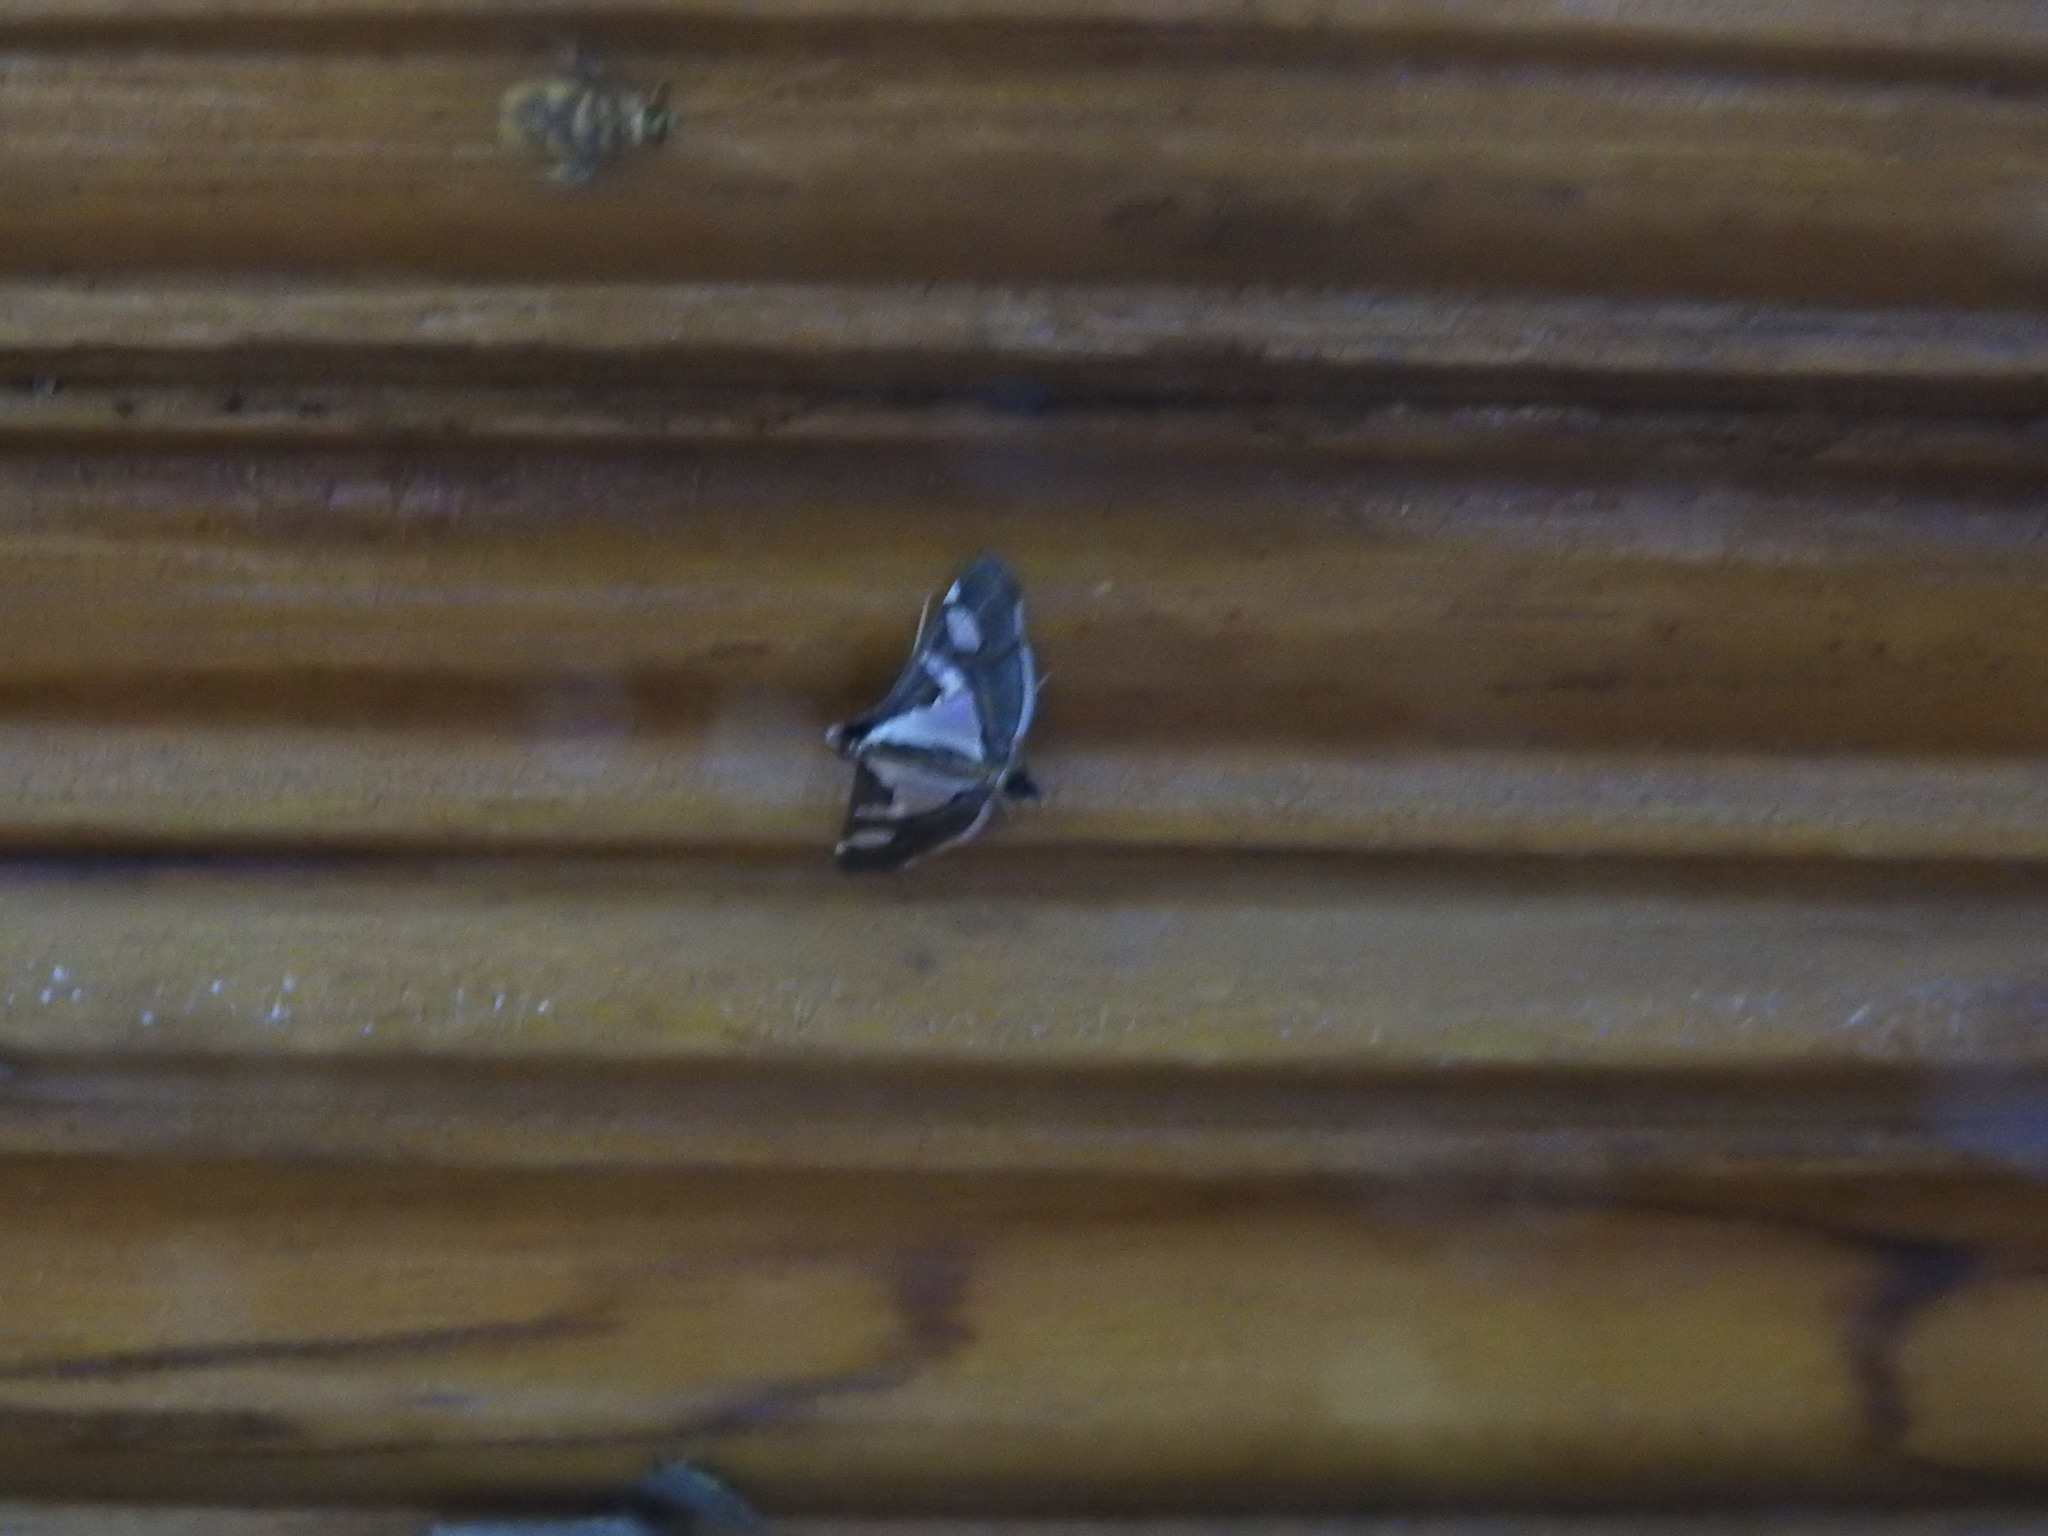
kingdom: Animalia
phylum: Arthropoda
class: Insecta
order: Lepidoptera
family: Crambidae
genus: Glyphodes
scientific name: Glyphodes bicolor
